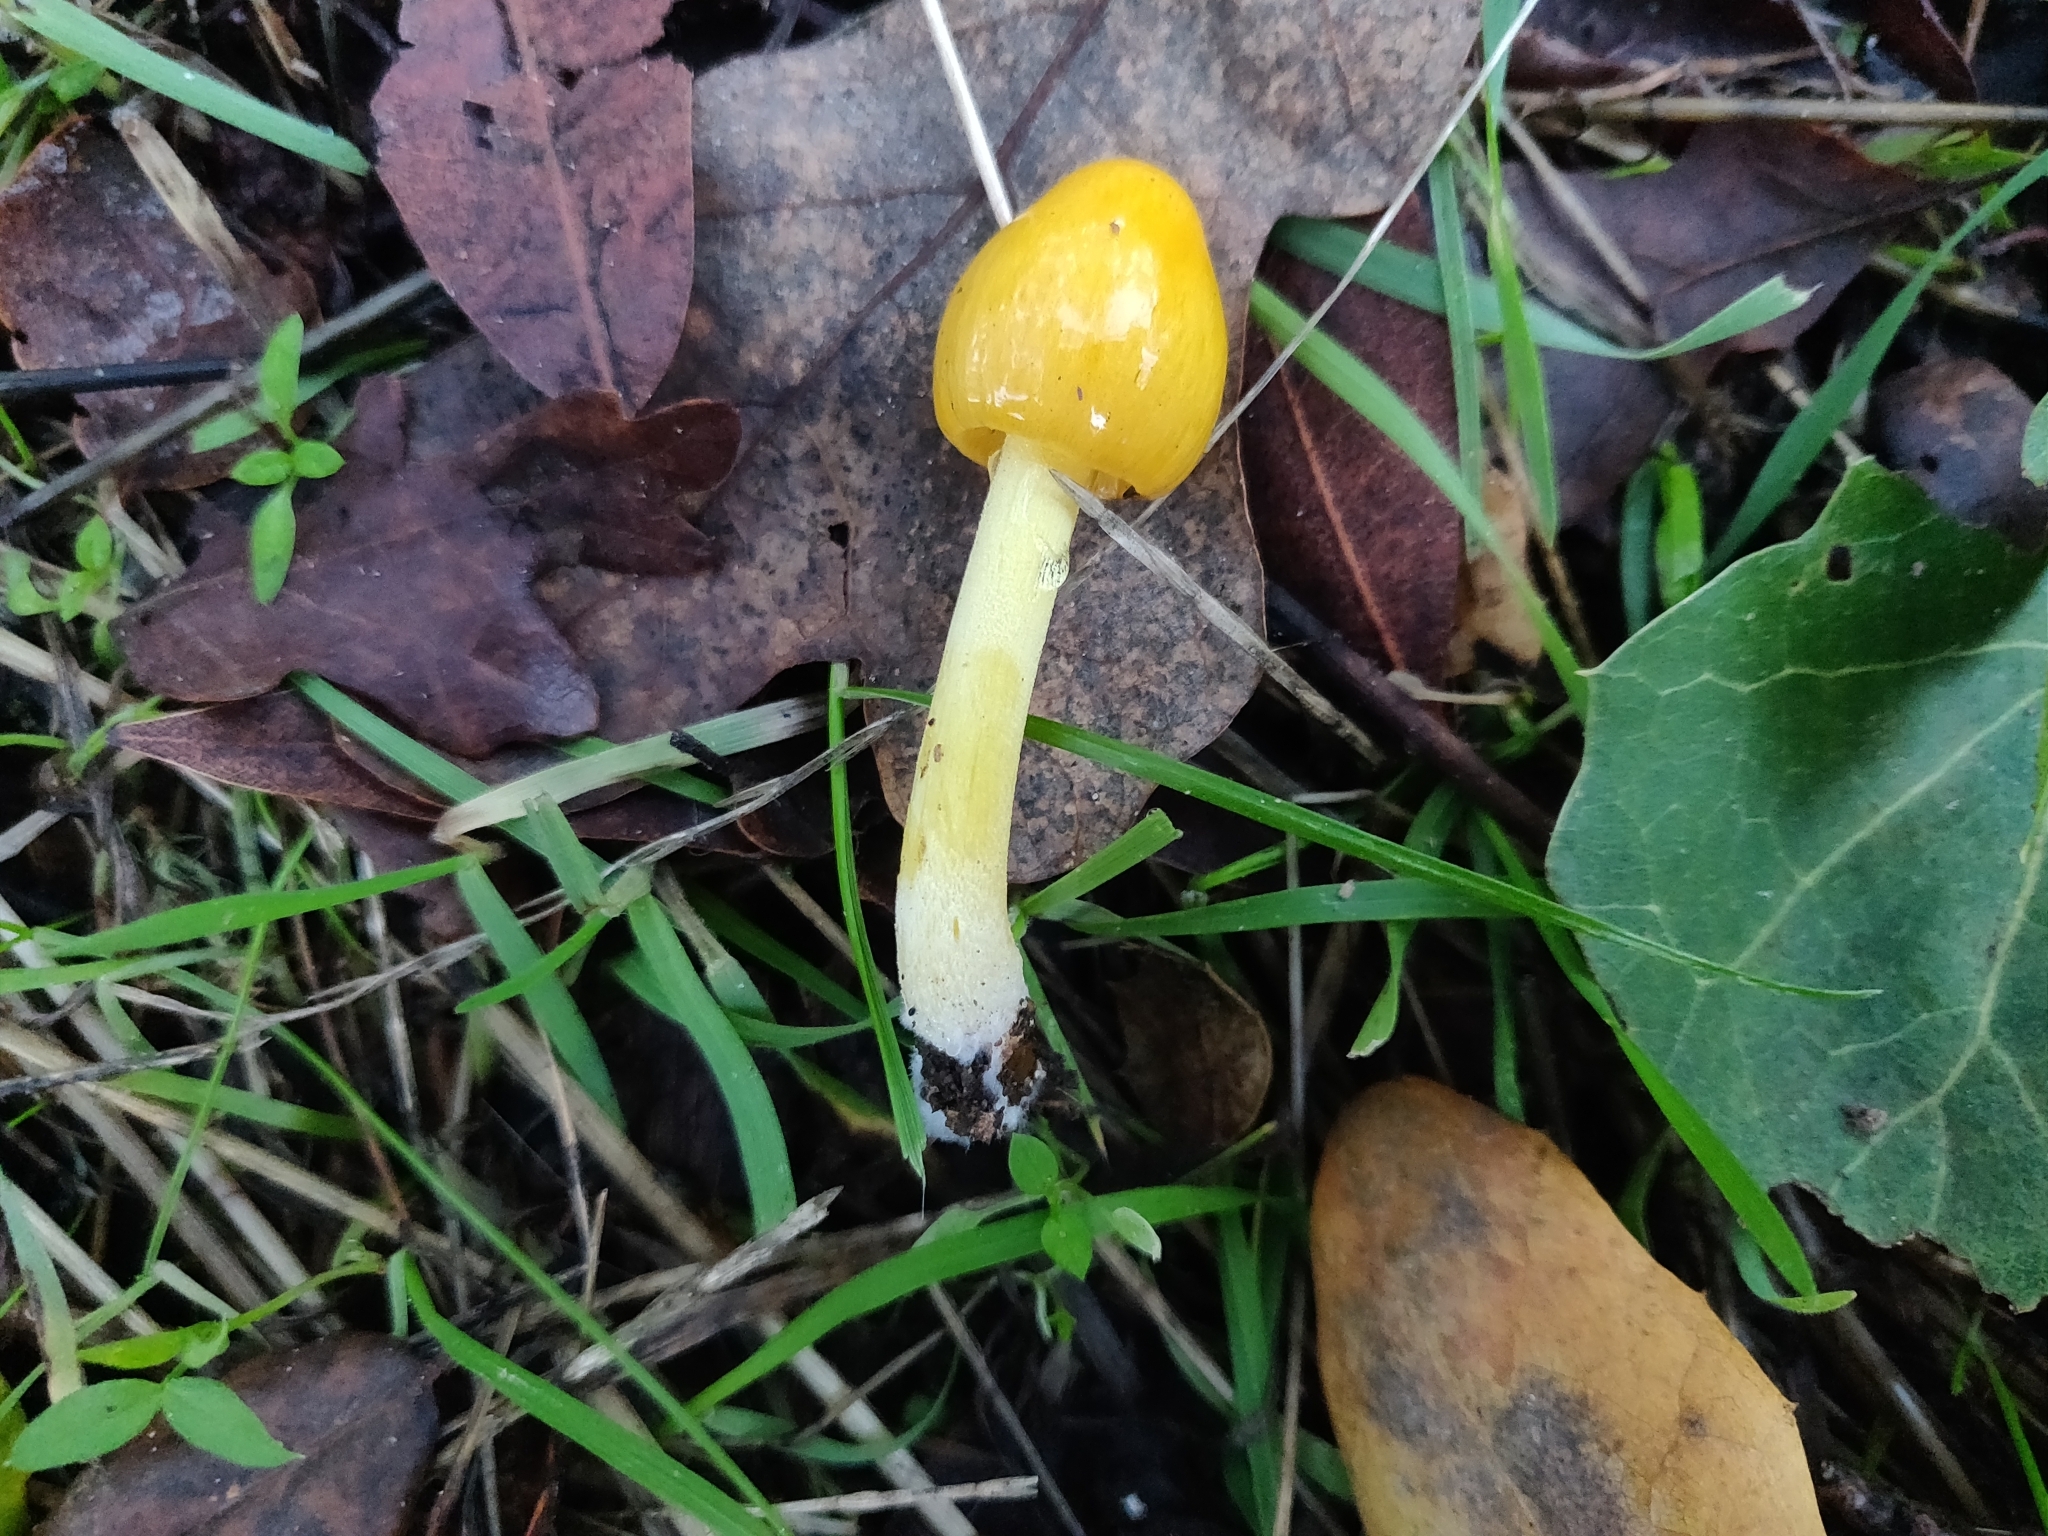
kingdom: Fungi
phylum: Basidiomycota
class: Agaricomycetes
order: Agaricales
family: Bolbitiaceae
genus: Bolbitius
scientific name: Bolbitius titubans
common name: Yellow fieldcap
